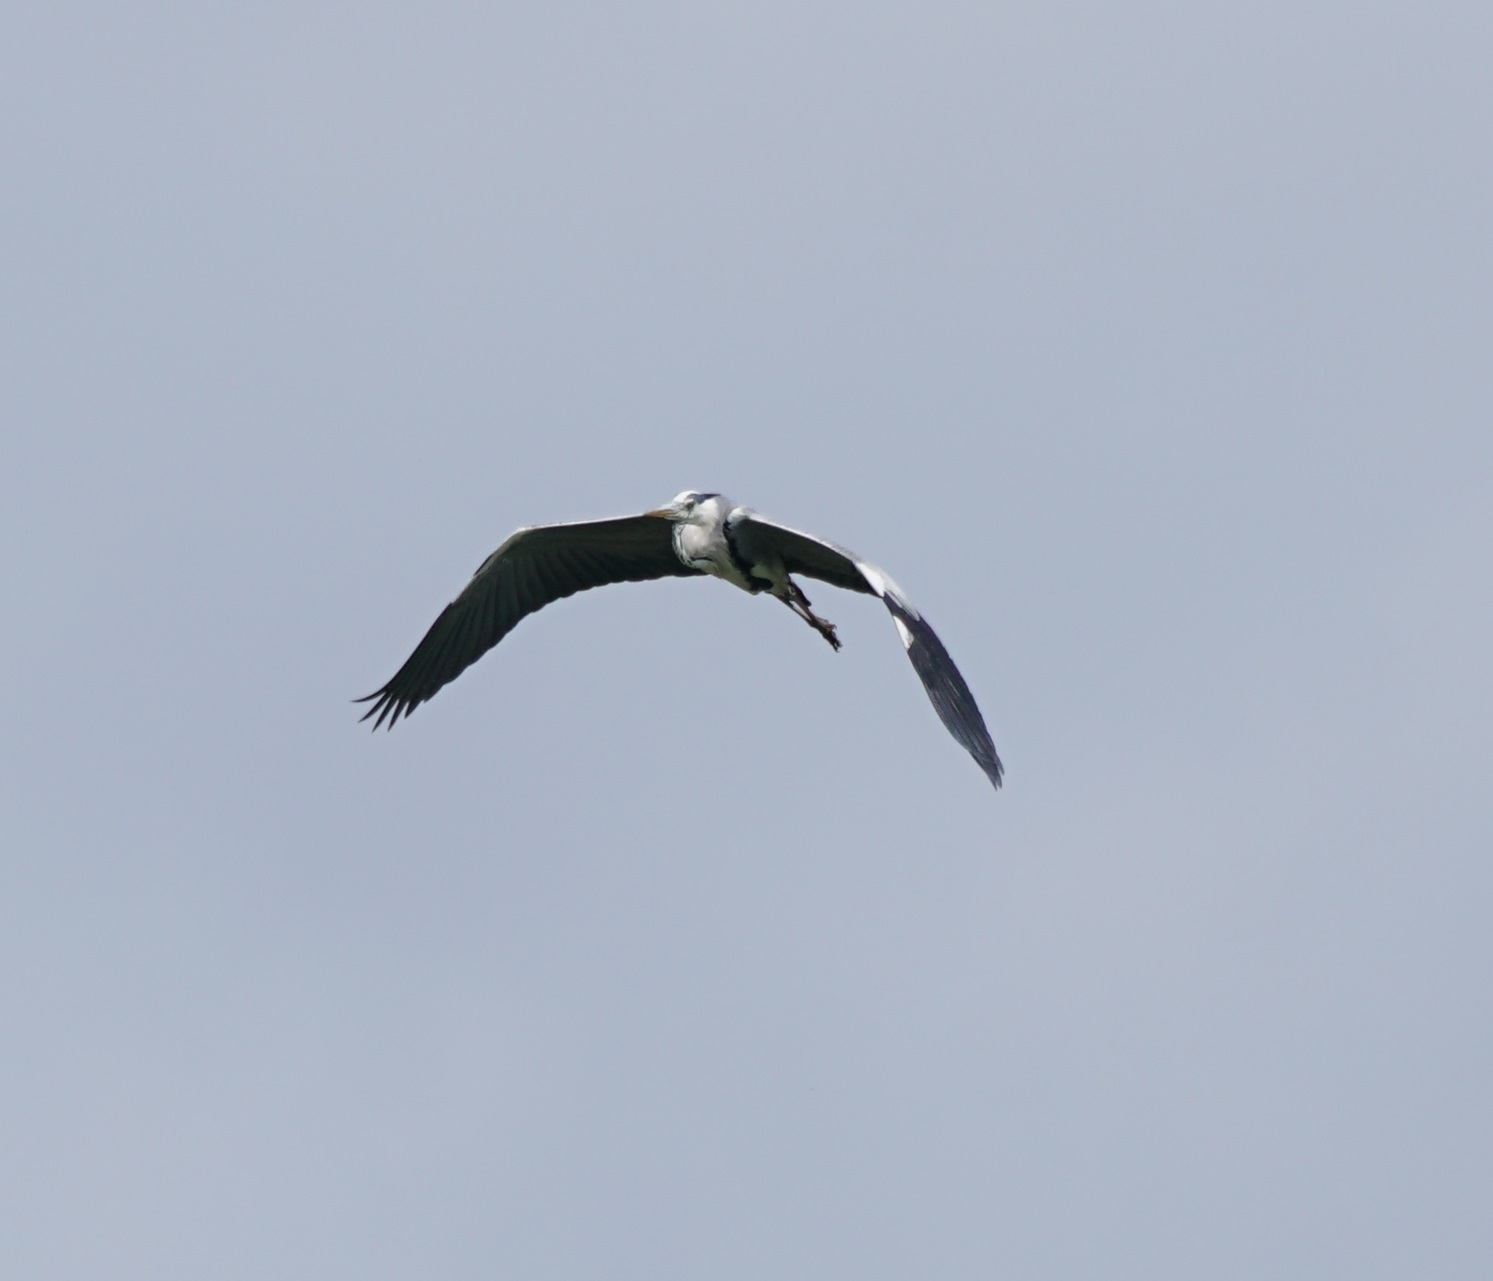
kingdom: Animalia
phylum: Chordata
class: Aves
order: Pelecaniformes
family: Ardeidae
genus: Ardea
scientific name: Ardea cinerea
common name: Grey heron
